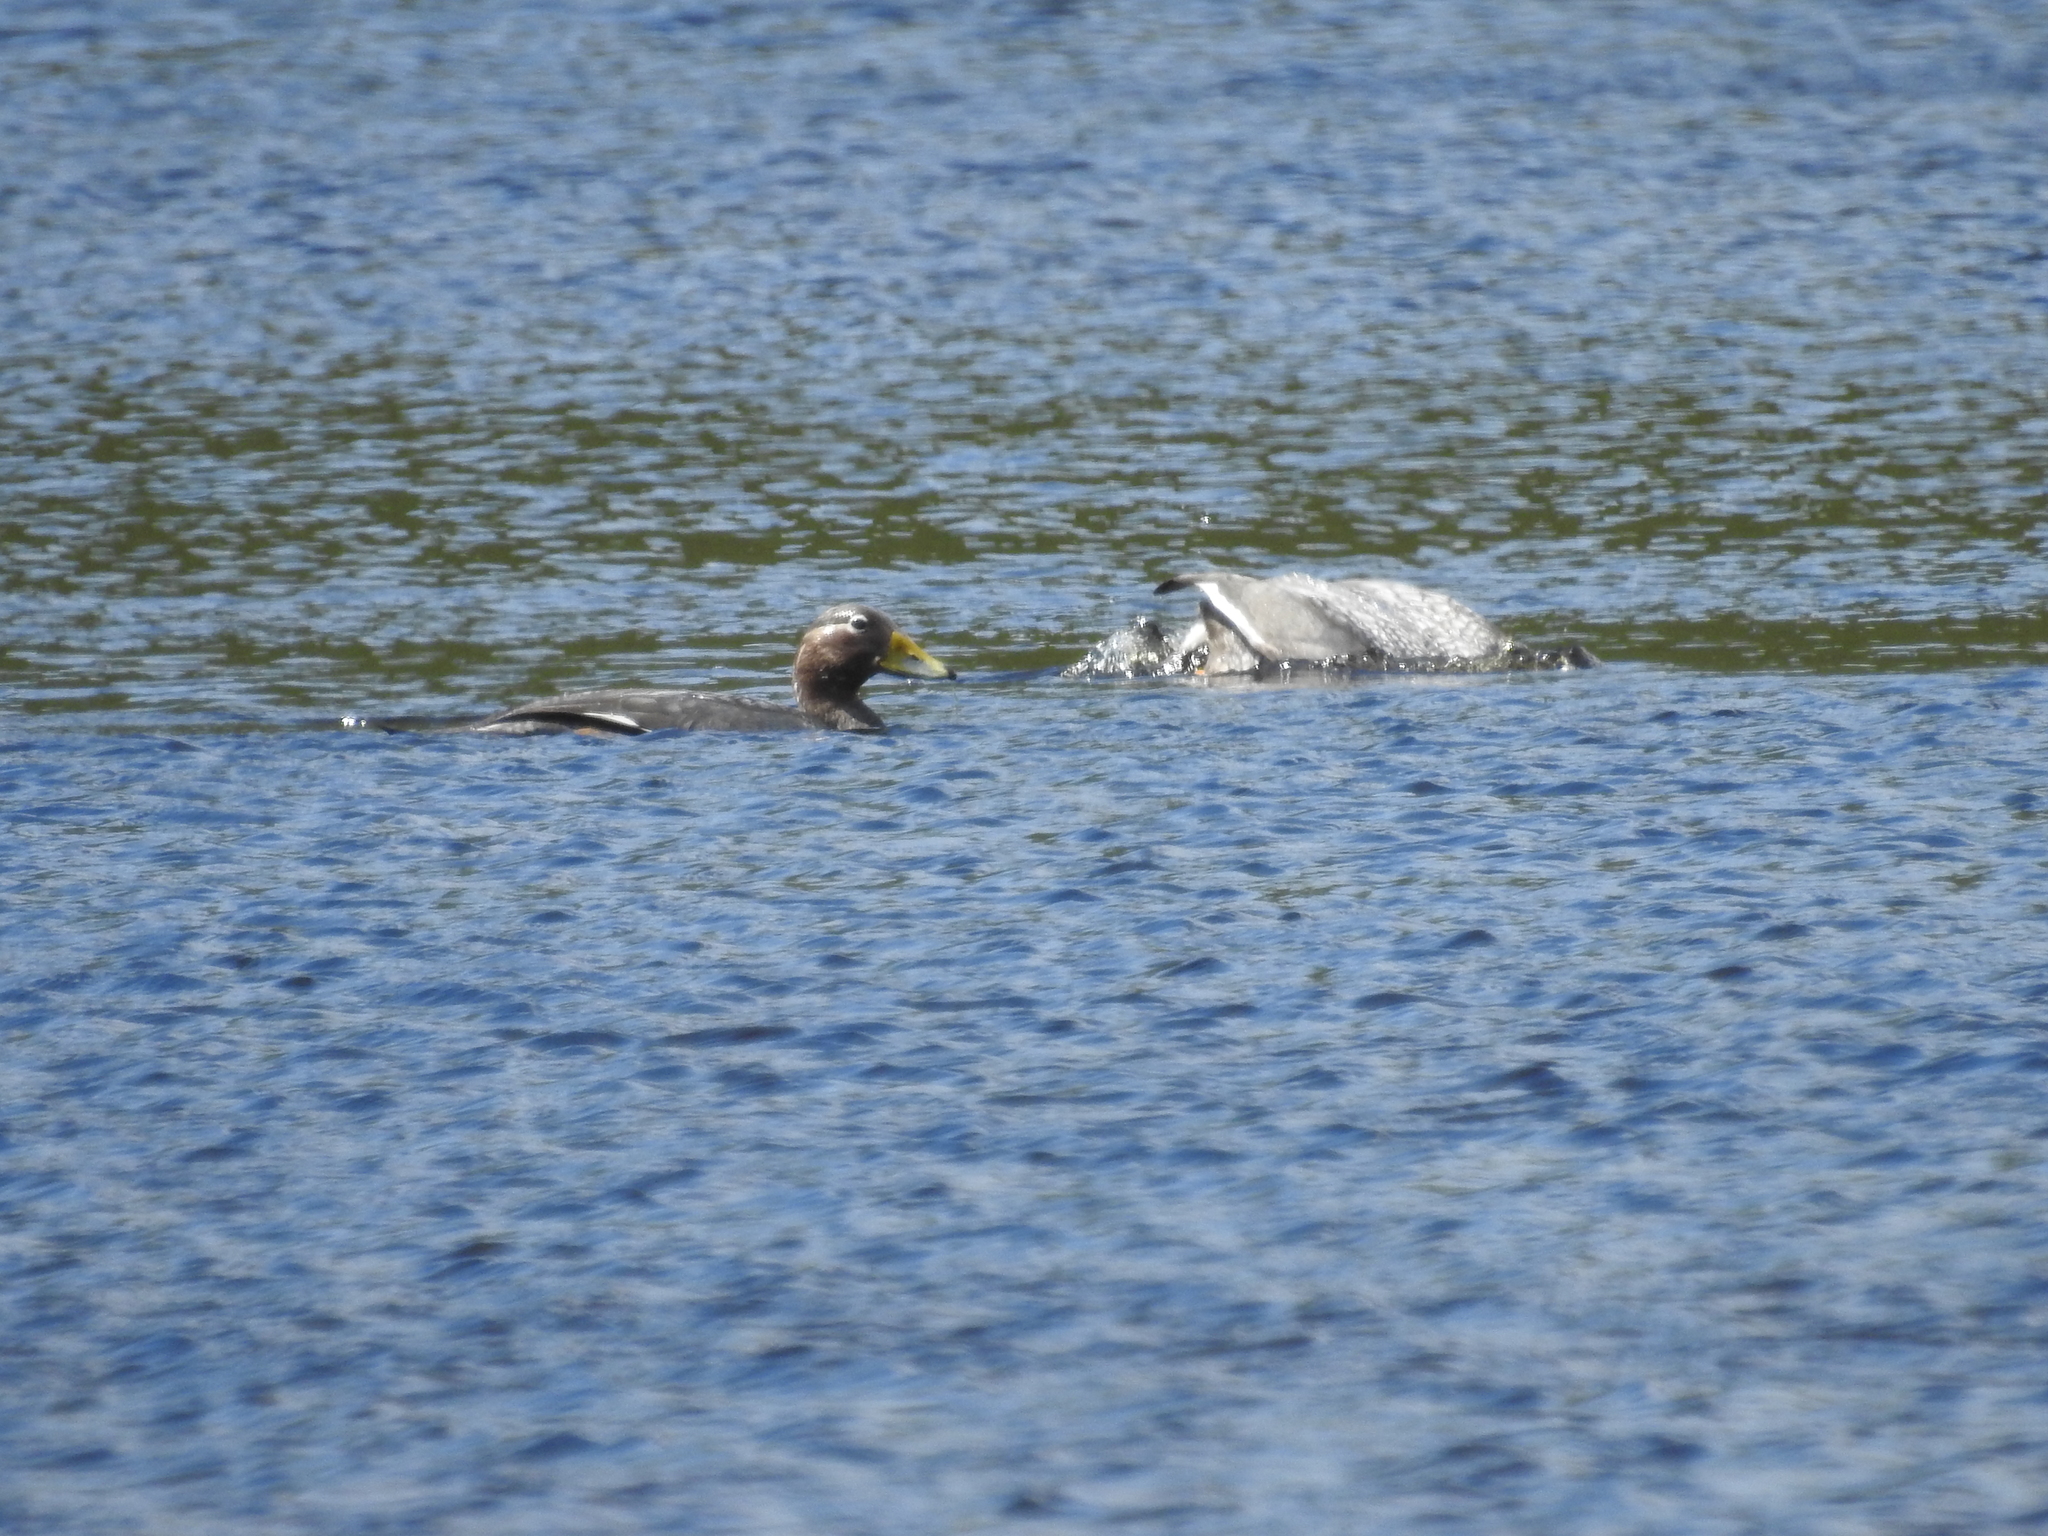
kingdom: Animalia
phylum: Chordata
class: Aves
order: Anseriformes
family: Anatidae
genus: Tachyeres
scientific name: Tachyeres patachonicus
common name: Flying steamer duck
